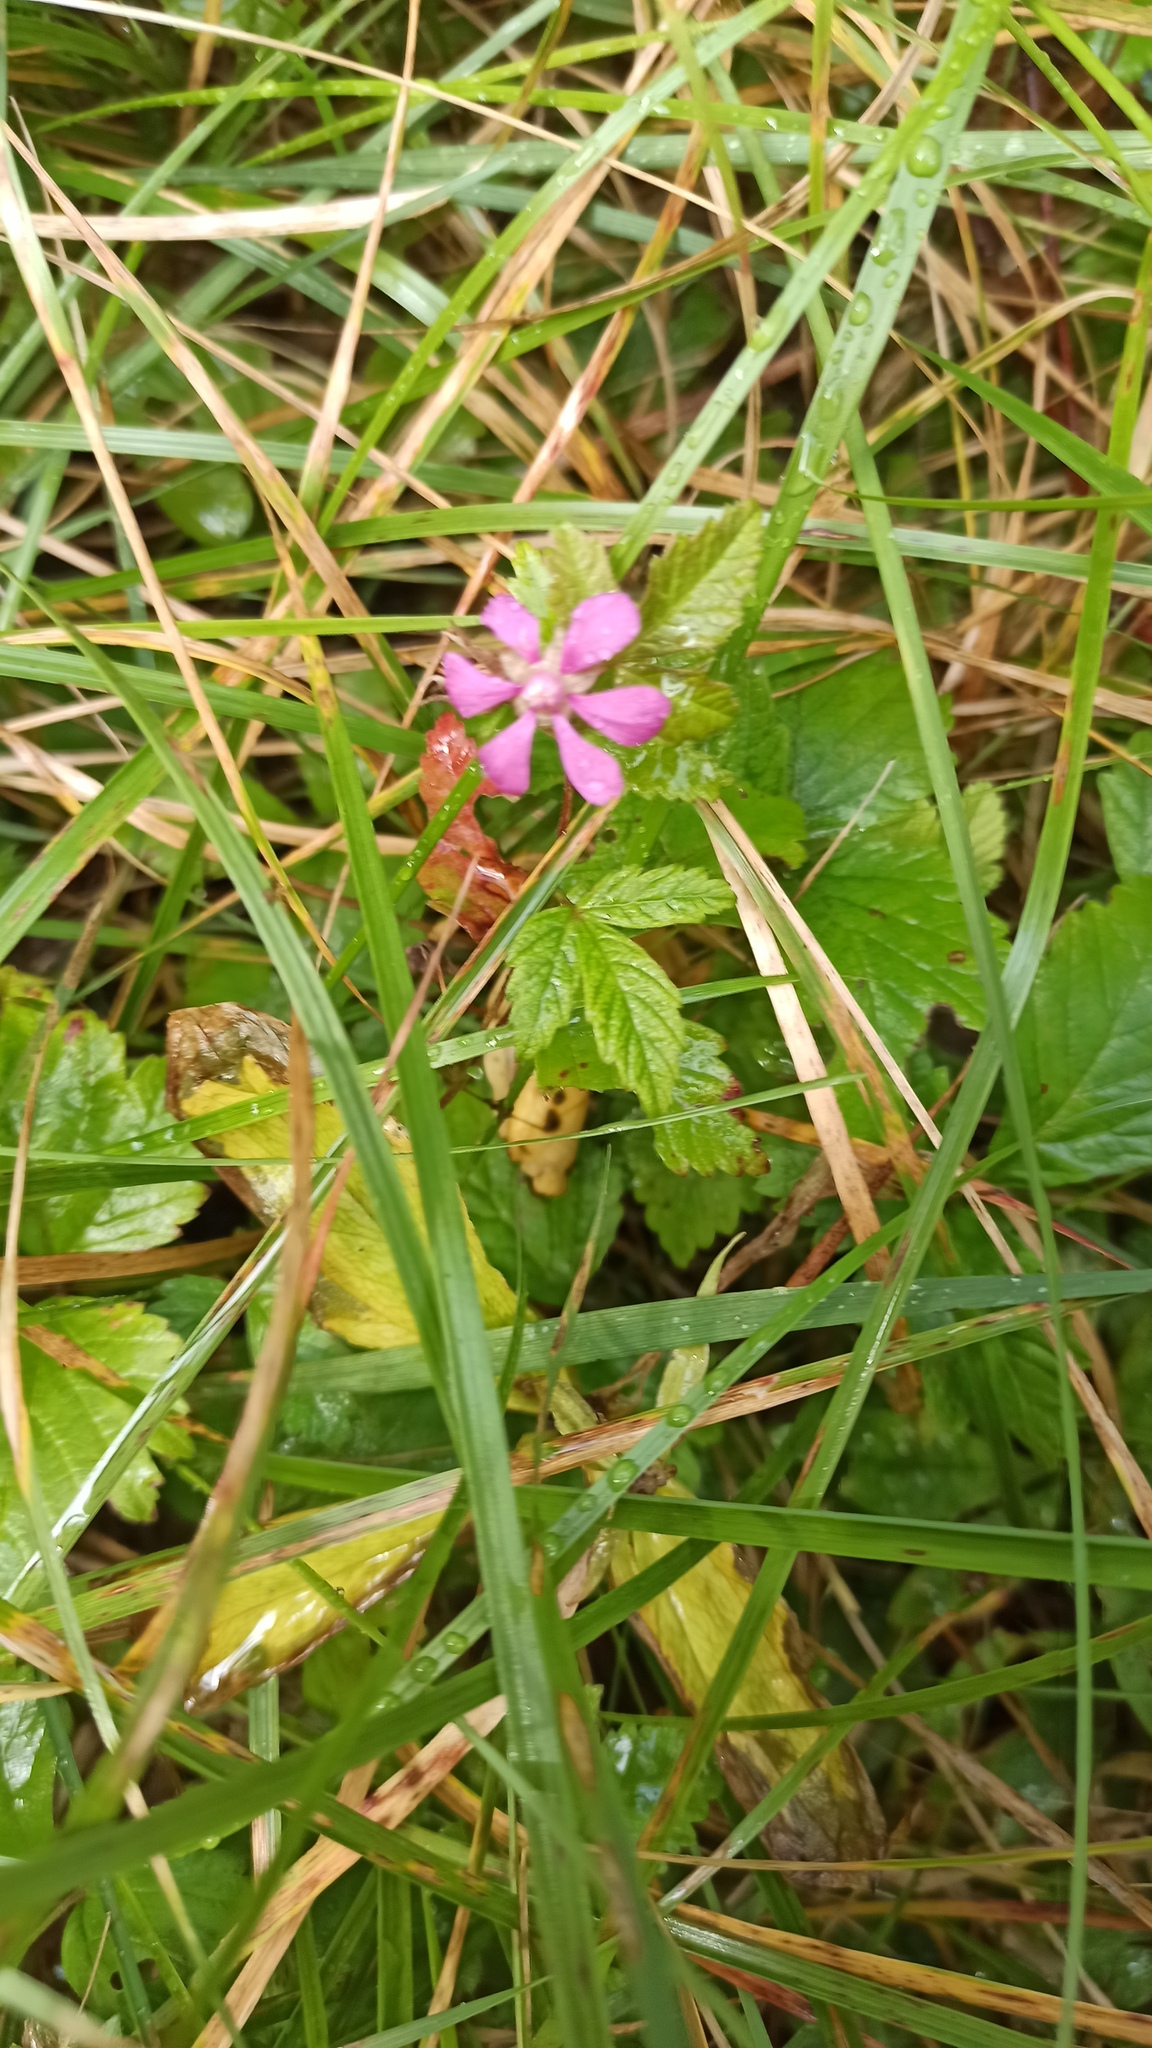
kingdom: Plantae
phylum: Tracheophyta
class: Magnoliopsida
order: Rosales
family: Rosaceae
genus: Rubus
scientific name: Rubus arcticus
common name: Arctic bramble
